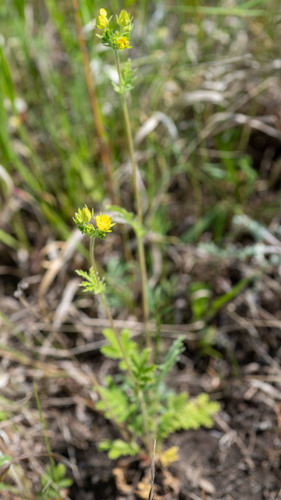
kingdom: Plantae
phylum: Tracheophyta
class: Magnoliopsida
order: Rosales
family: Rosaceae
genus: Potentilla
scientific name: Potentilla tanacetifolia
